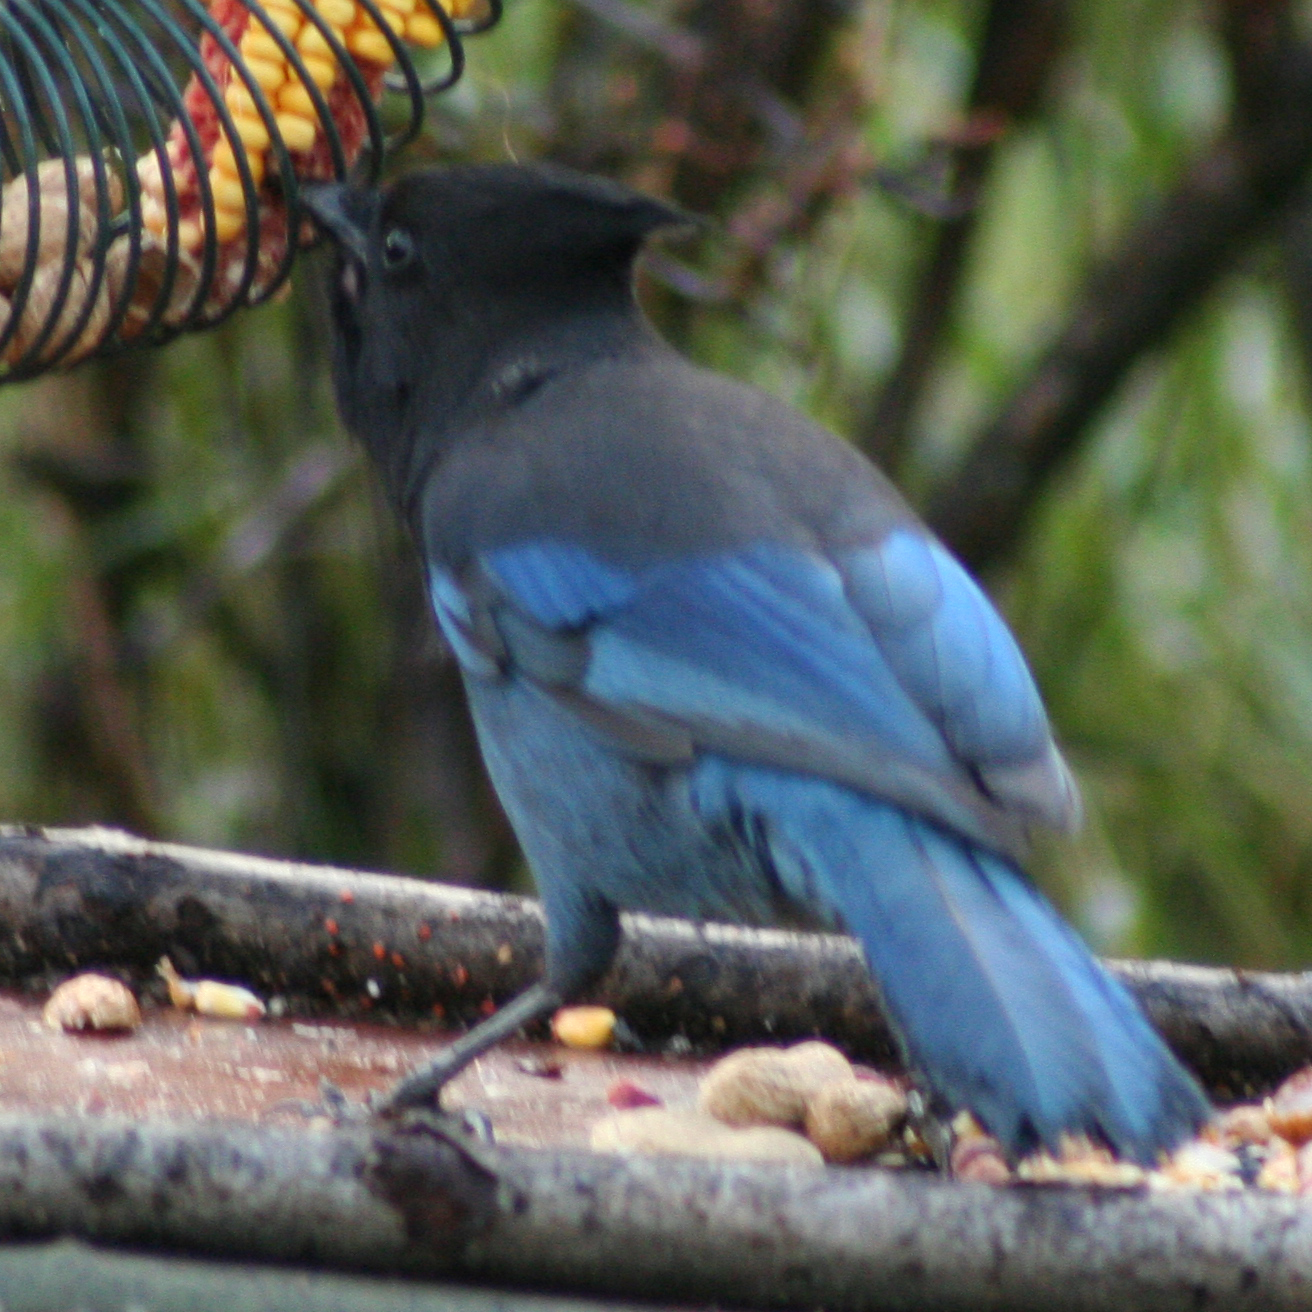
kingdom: Animalia
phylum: Chordata
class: Aves
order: Passeriformes
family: Corvidae
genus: Cyanocitta
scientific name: Cyanocitta stelleri
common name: Steller's jay
